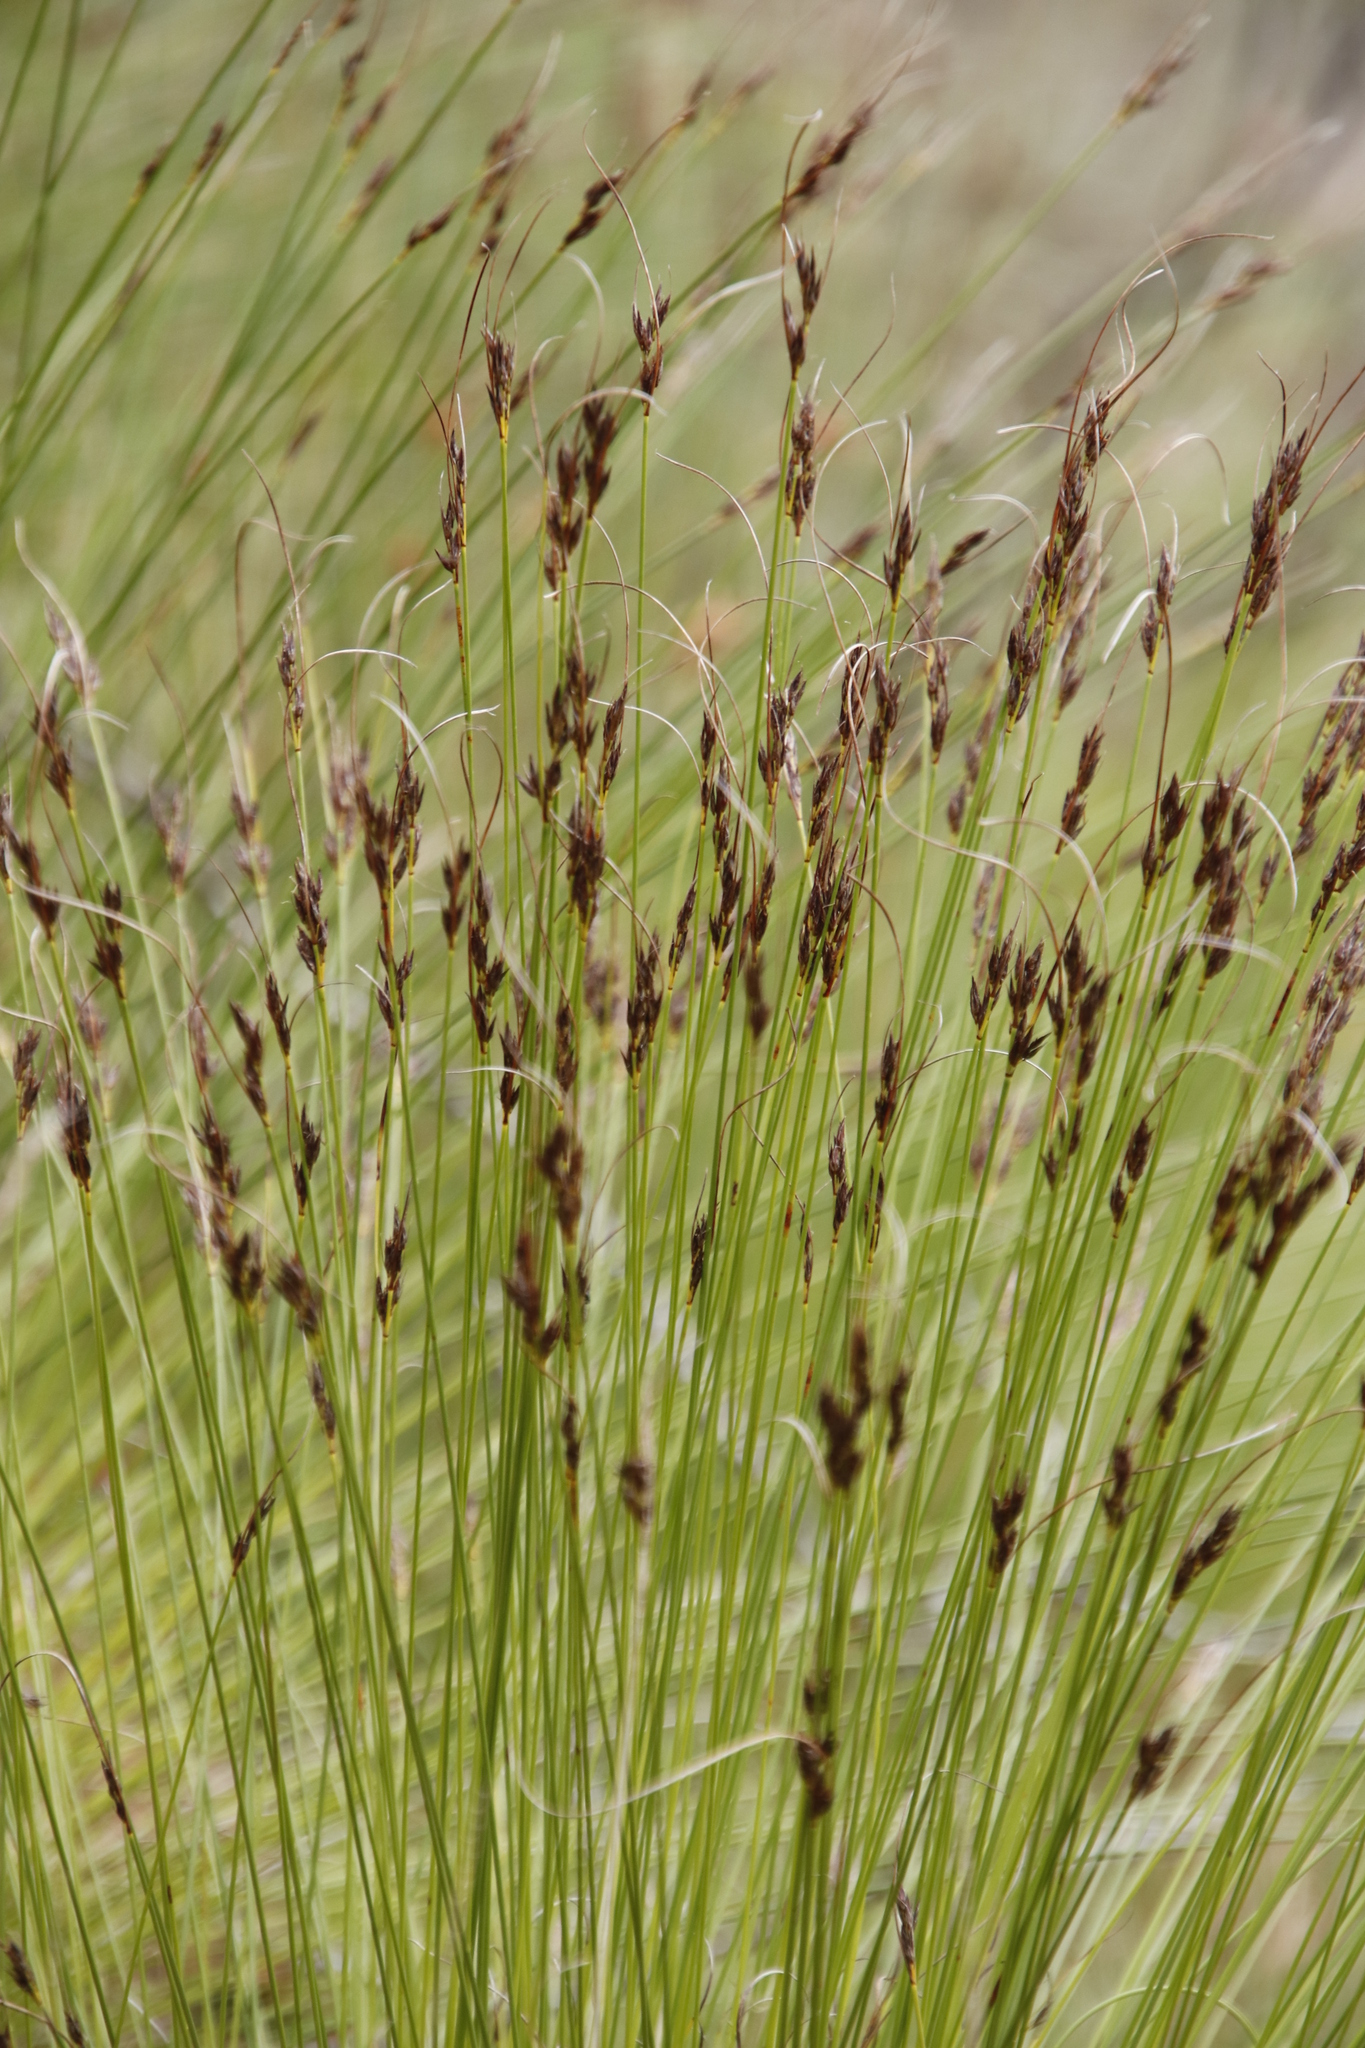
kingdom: Plantae
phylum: Tracheophyta
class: Liliopsida
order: Poales
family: Cyperaceae
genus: Ficinia
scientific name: Ficinia nigrescens
